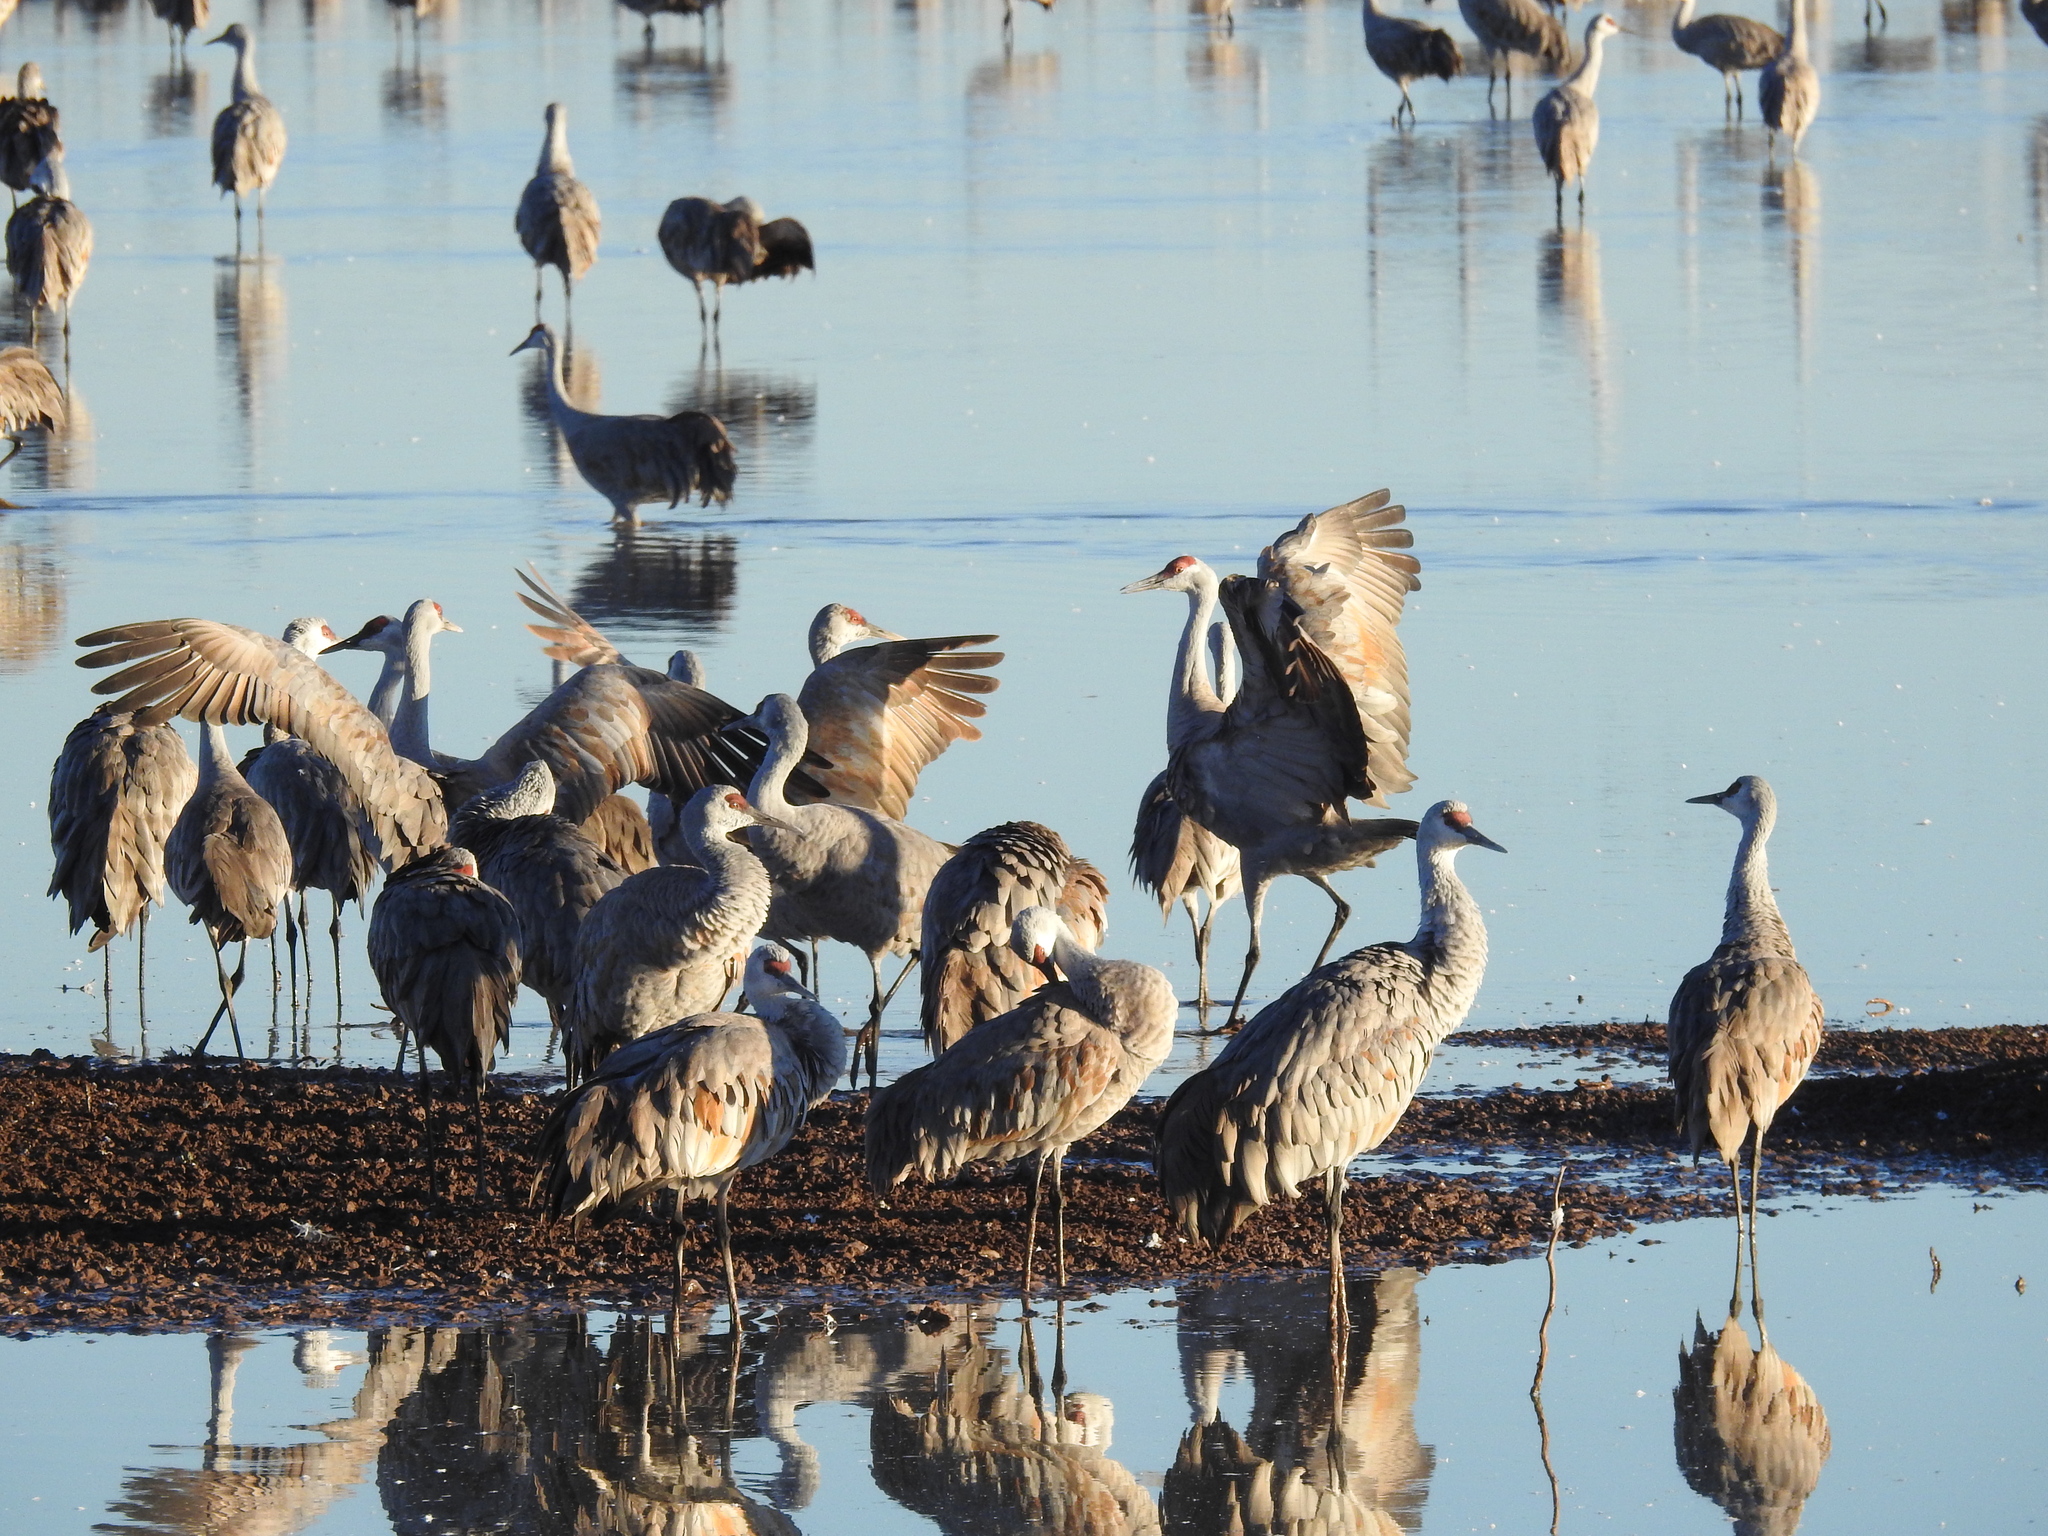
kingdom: Animalia
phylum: Chordata
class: Aves
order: Gruiformes
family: Gruidae
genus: Grus
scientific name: Grus canadensis
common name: Sandhill crane
